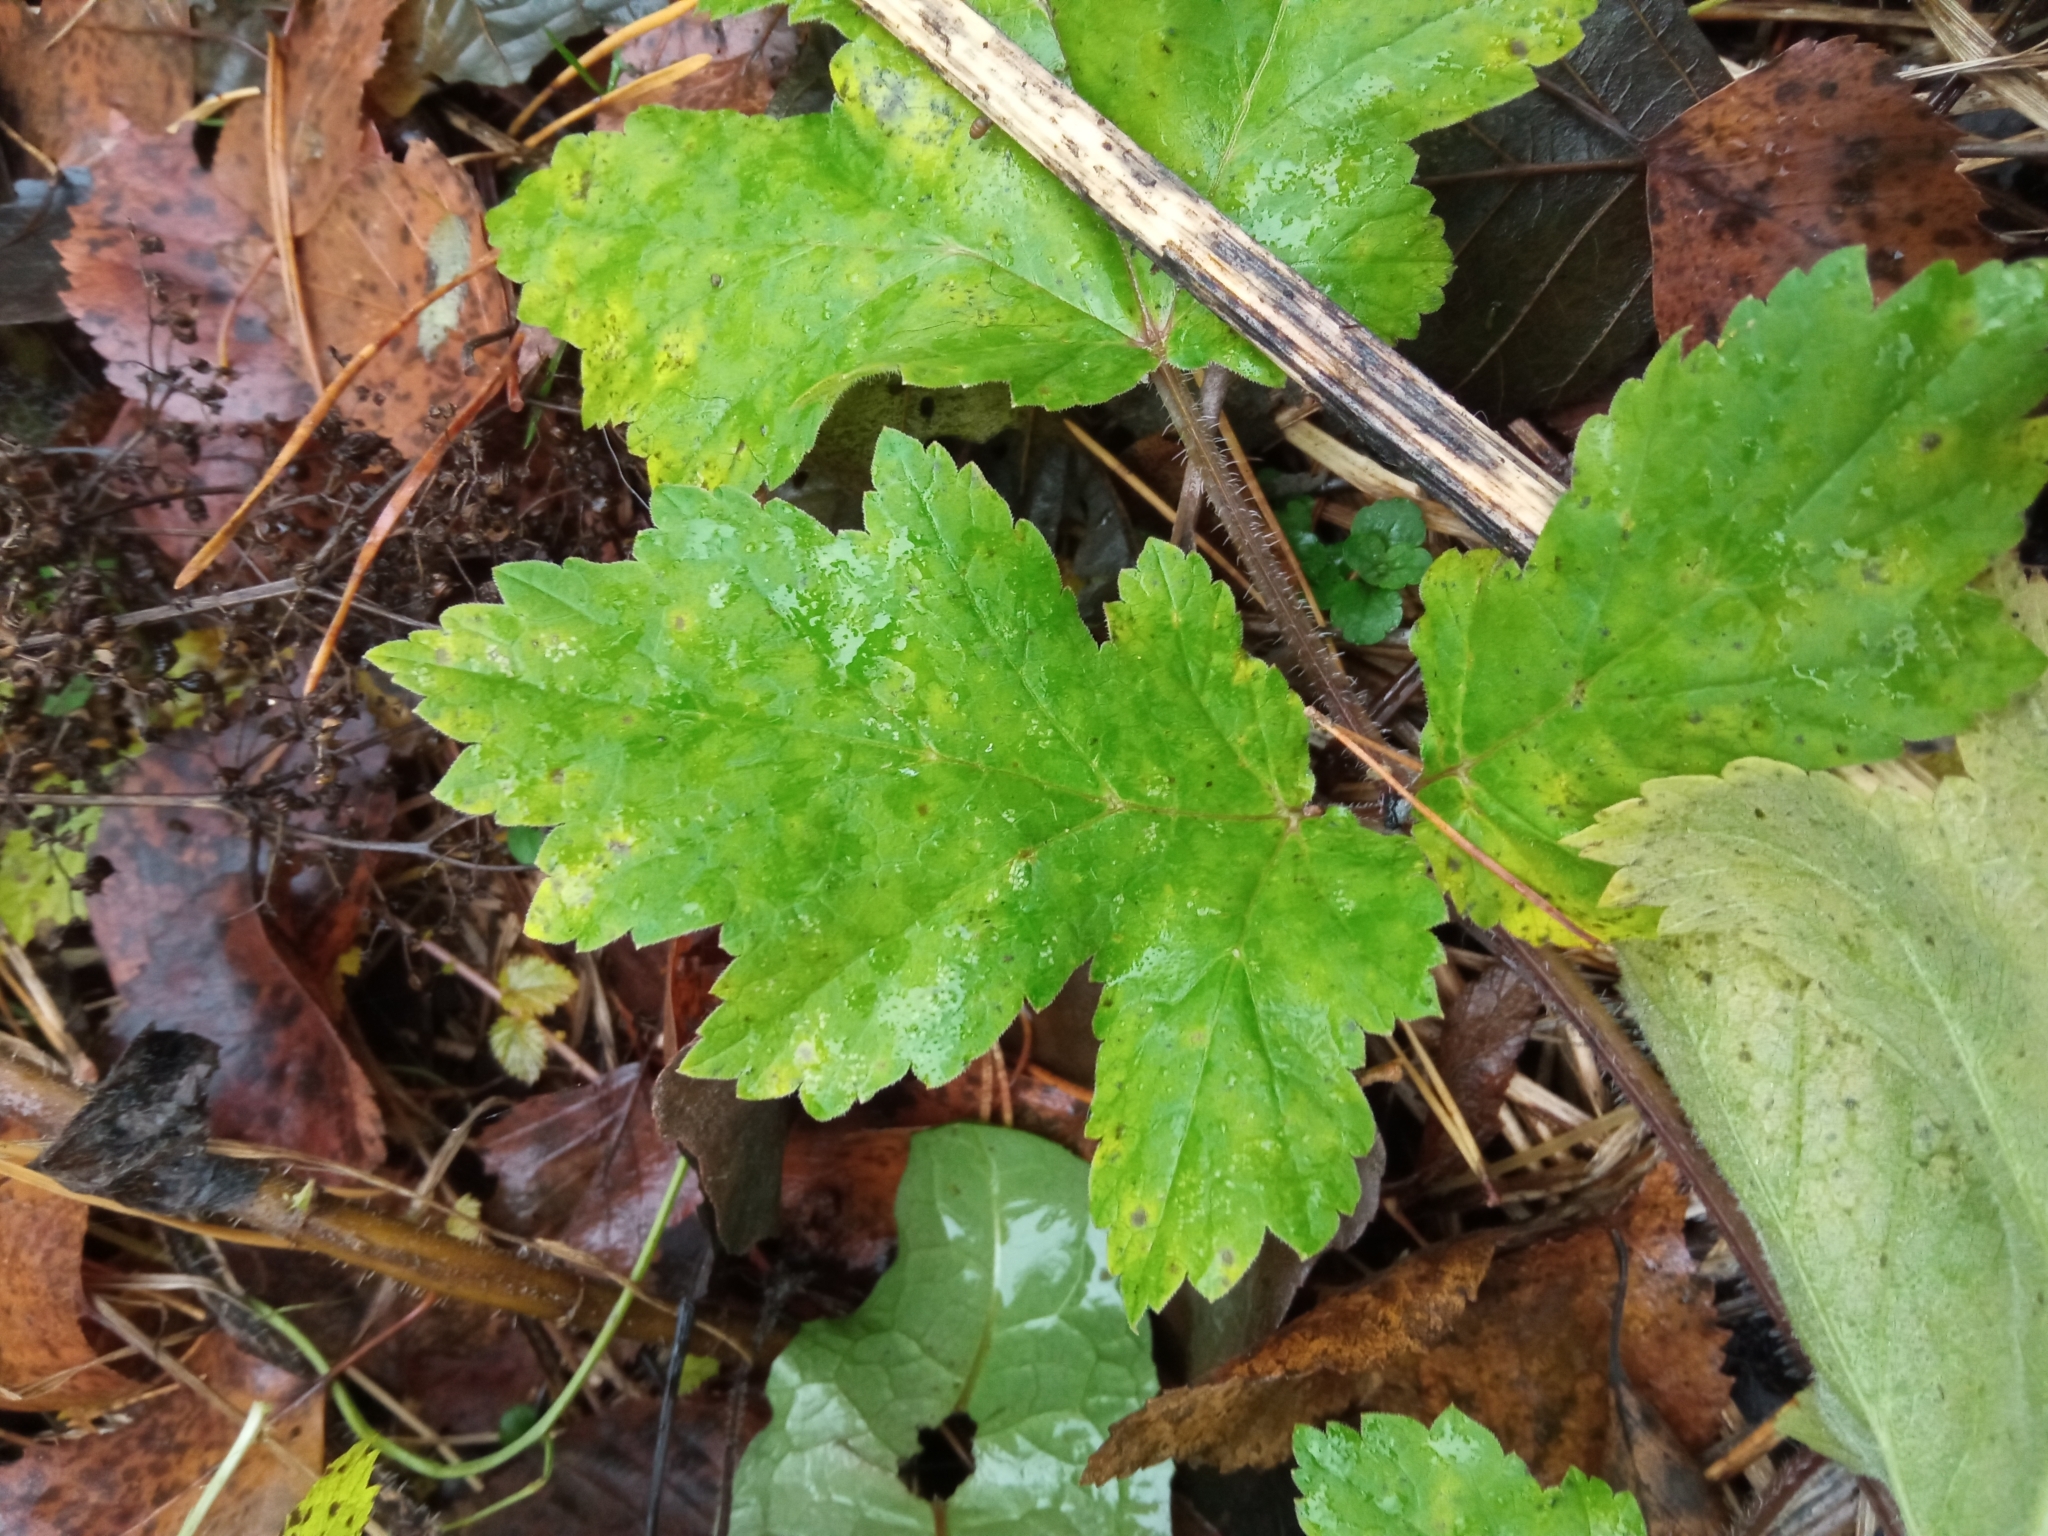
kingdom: Plantae
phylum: Tracheophyta
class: Magnoliopsida
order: Apiales
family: Apiaceae
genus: Heracleum
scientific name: Heracleum sosnowskyi
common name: Sosnowsky's hogweed
